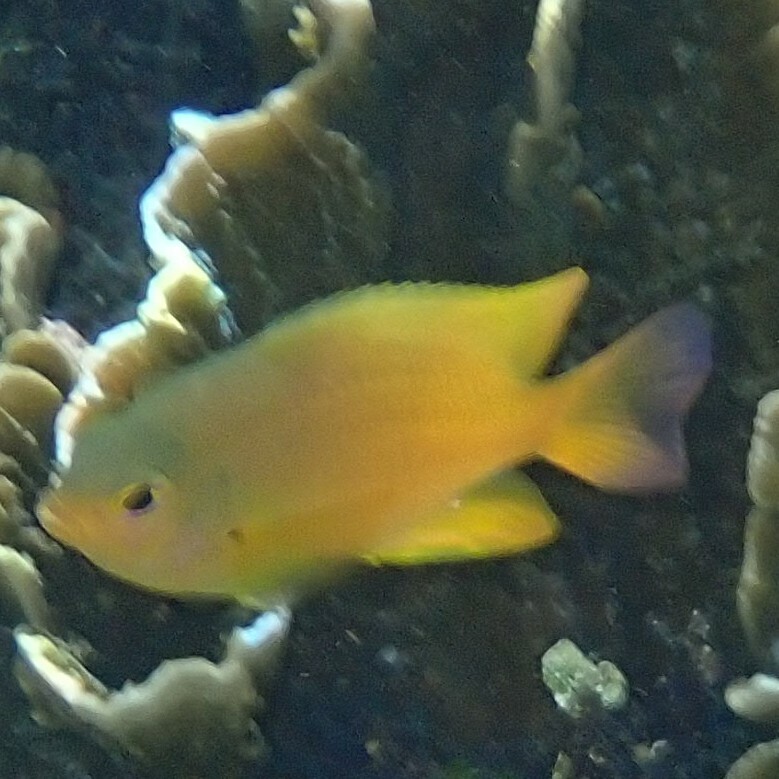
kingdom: Animalia
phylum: Chordata
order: Perciformes
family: Pomacentridae
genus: Pomacentrus
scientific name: Pomacentrus moluccensis
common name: Lemon damsel
